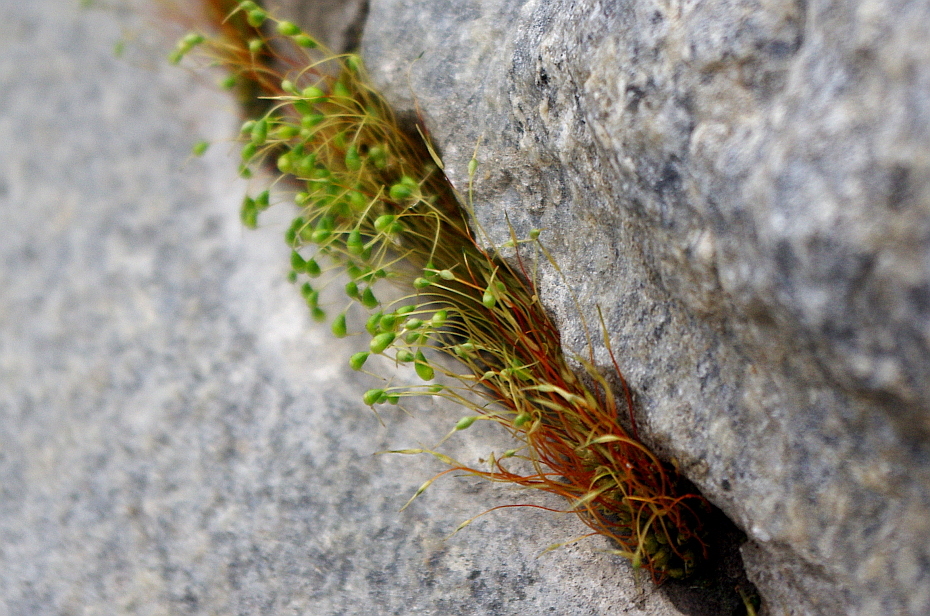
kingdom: Plantae
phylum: Bryophyta
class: Bryopsida
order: Funariales
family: Funariaceae
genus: Funaria
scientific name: Funaria hygrometrica
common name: Common cord moss
